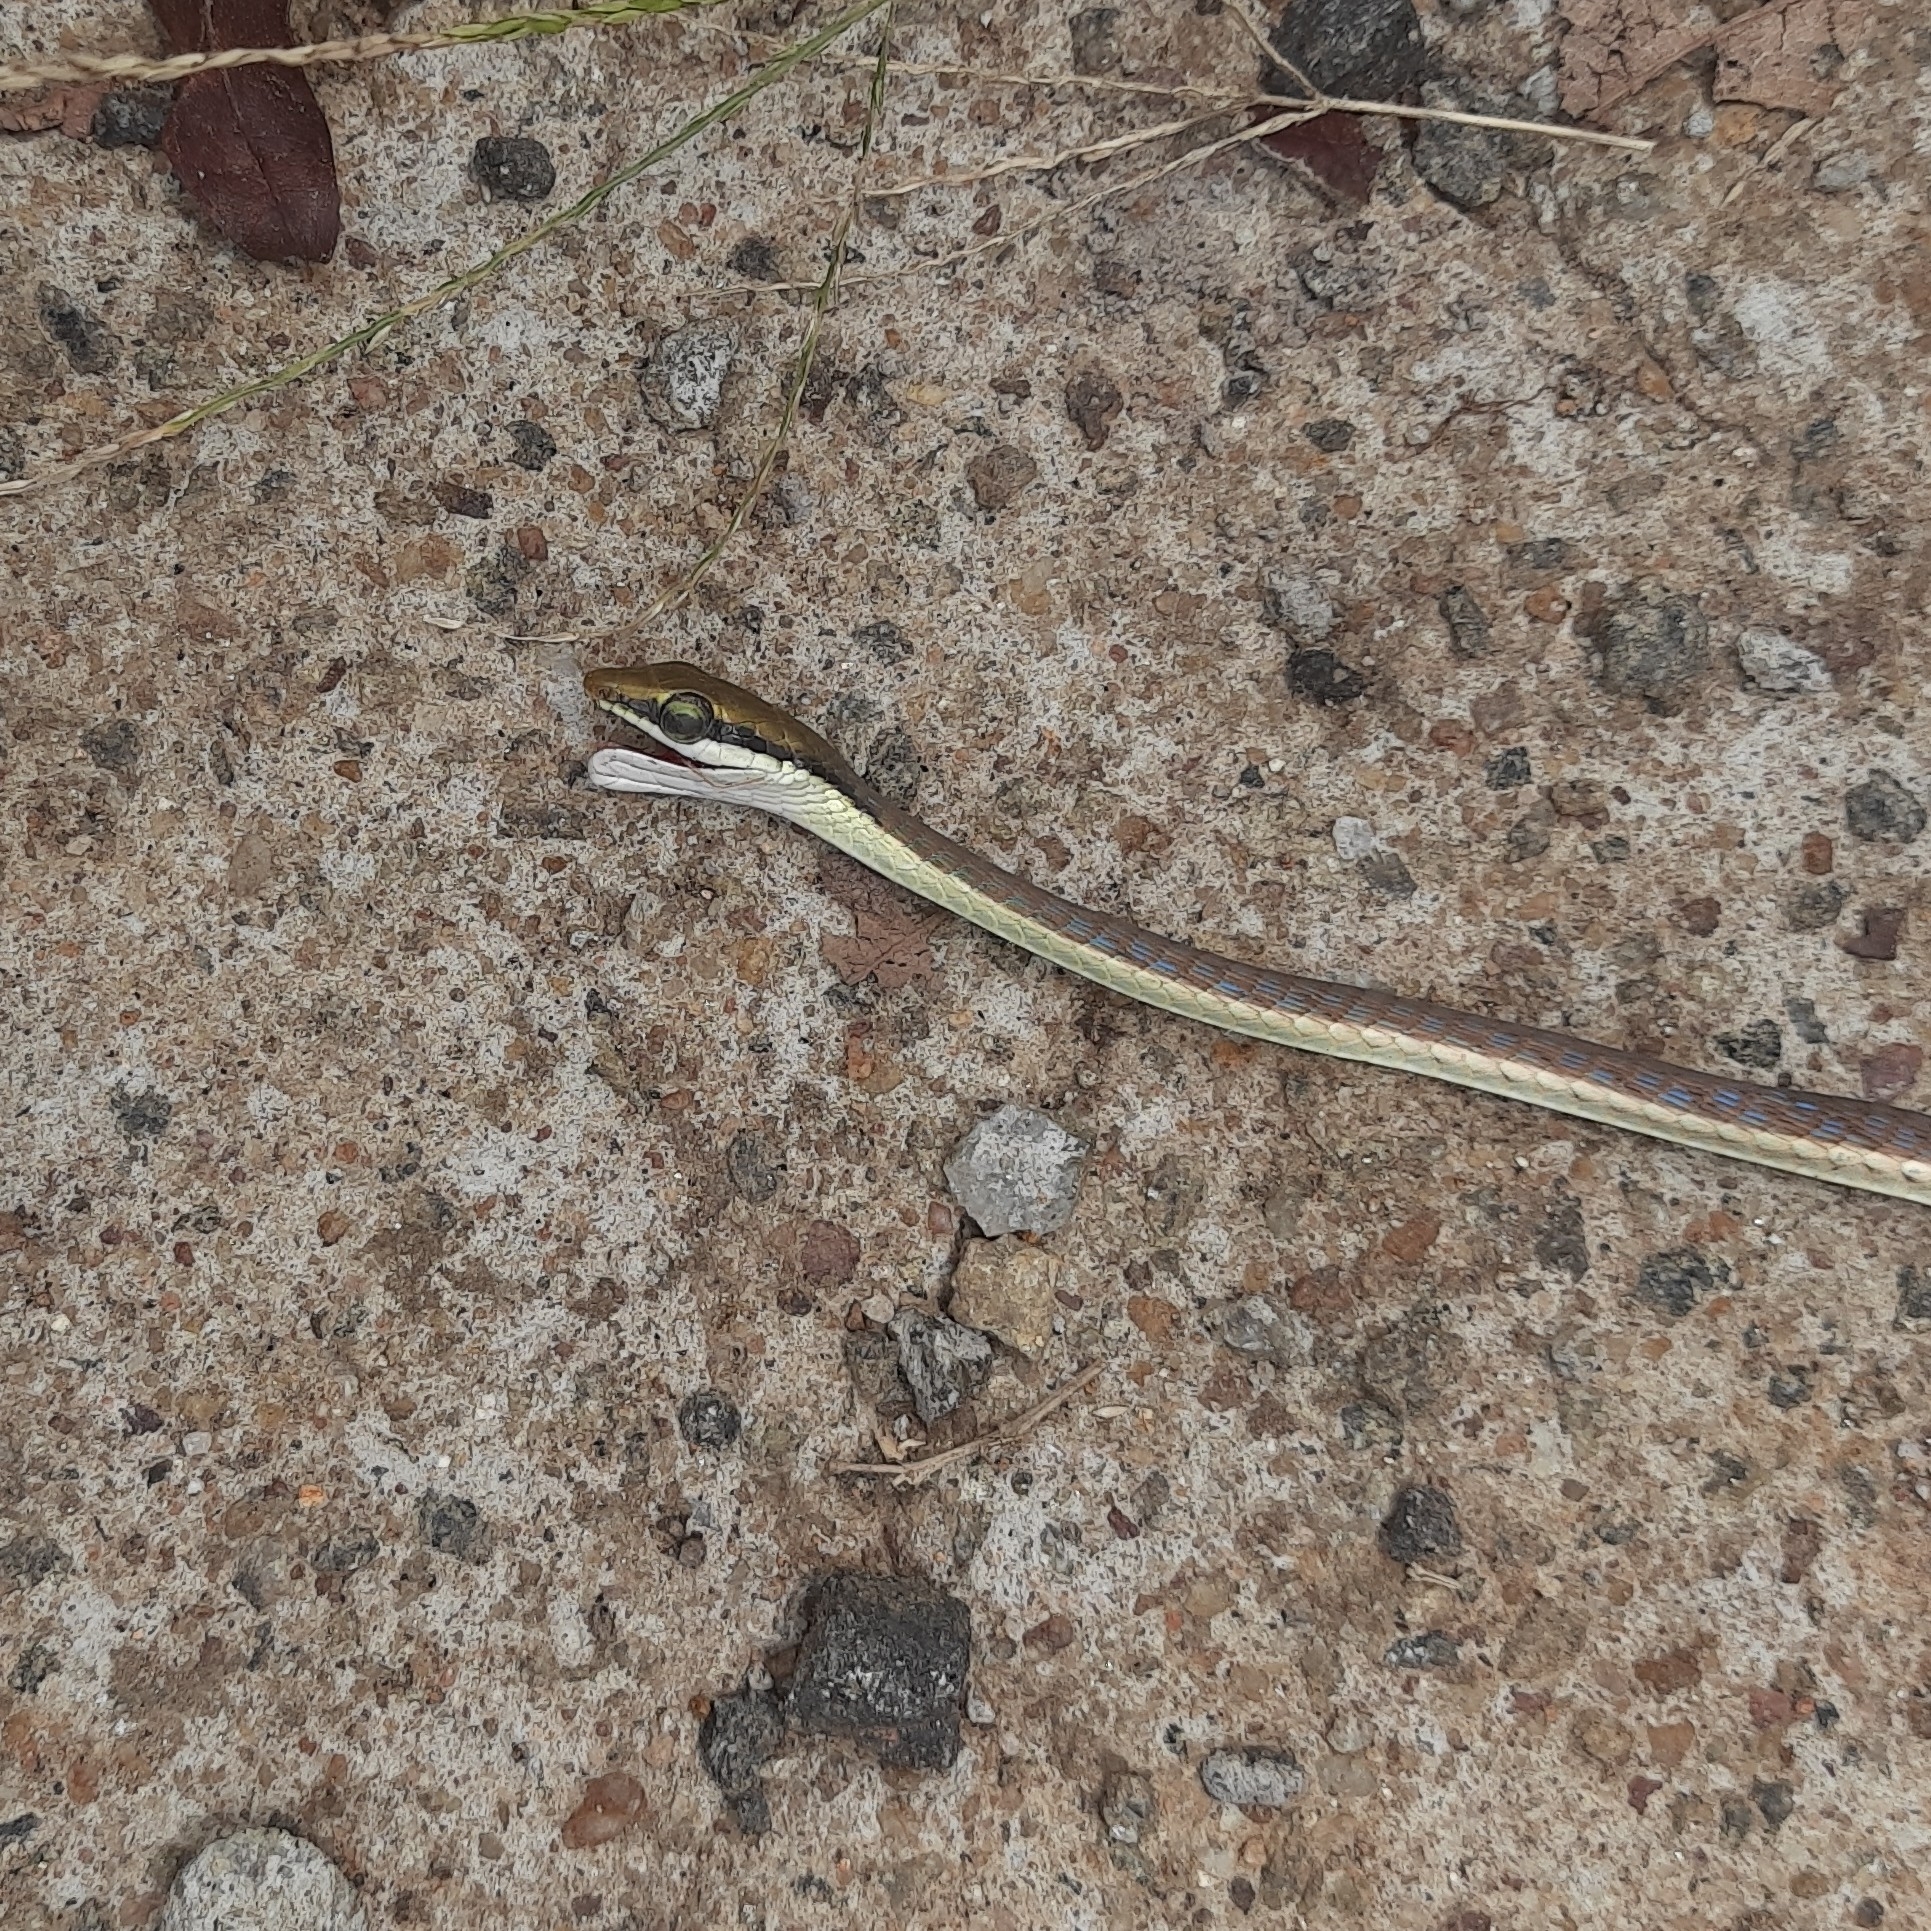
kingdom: Animalia
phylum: Chordata
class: Squamata
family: Colubridae
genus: Dendrelaphis
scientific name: Dendrelaphis girii
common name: Giri's bronzeback tree snake
